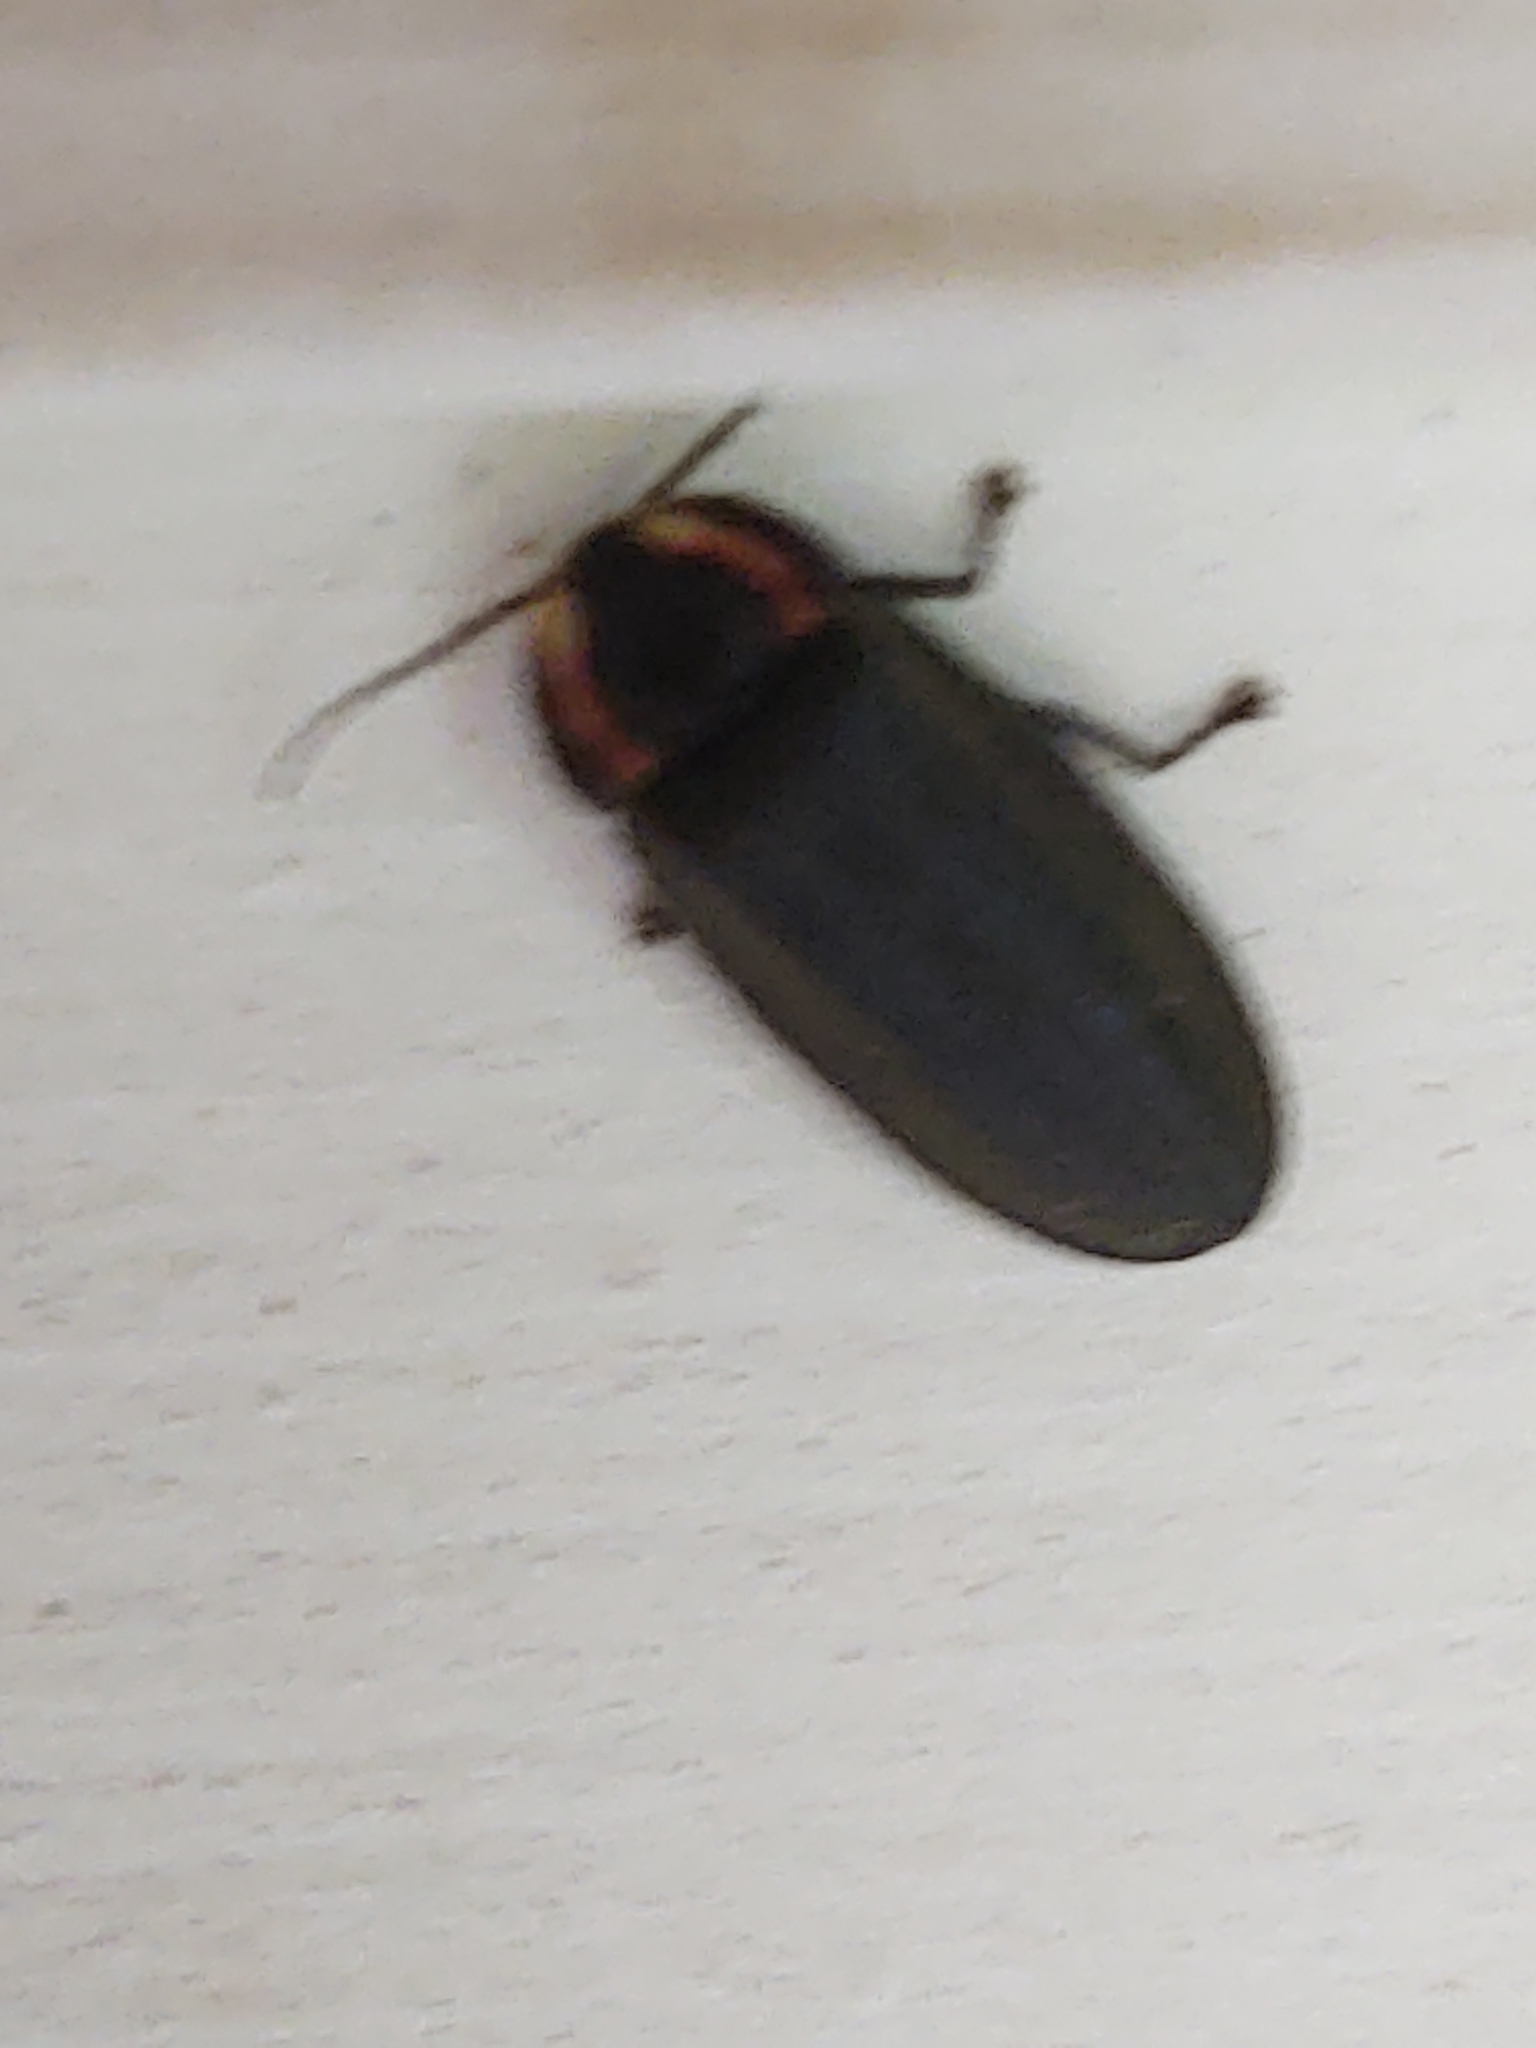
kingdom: Animalia
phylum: Arthropoda
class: Insecta
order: Coleoptera
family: Lampyridae
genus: Photinus
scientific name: Photinus corrusca
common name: Winter firefly
